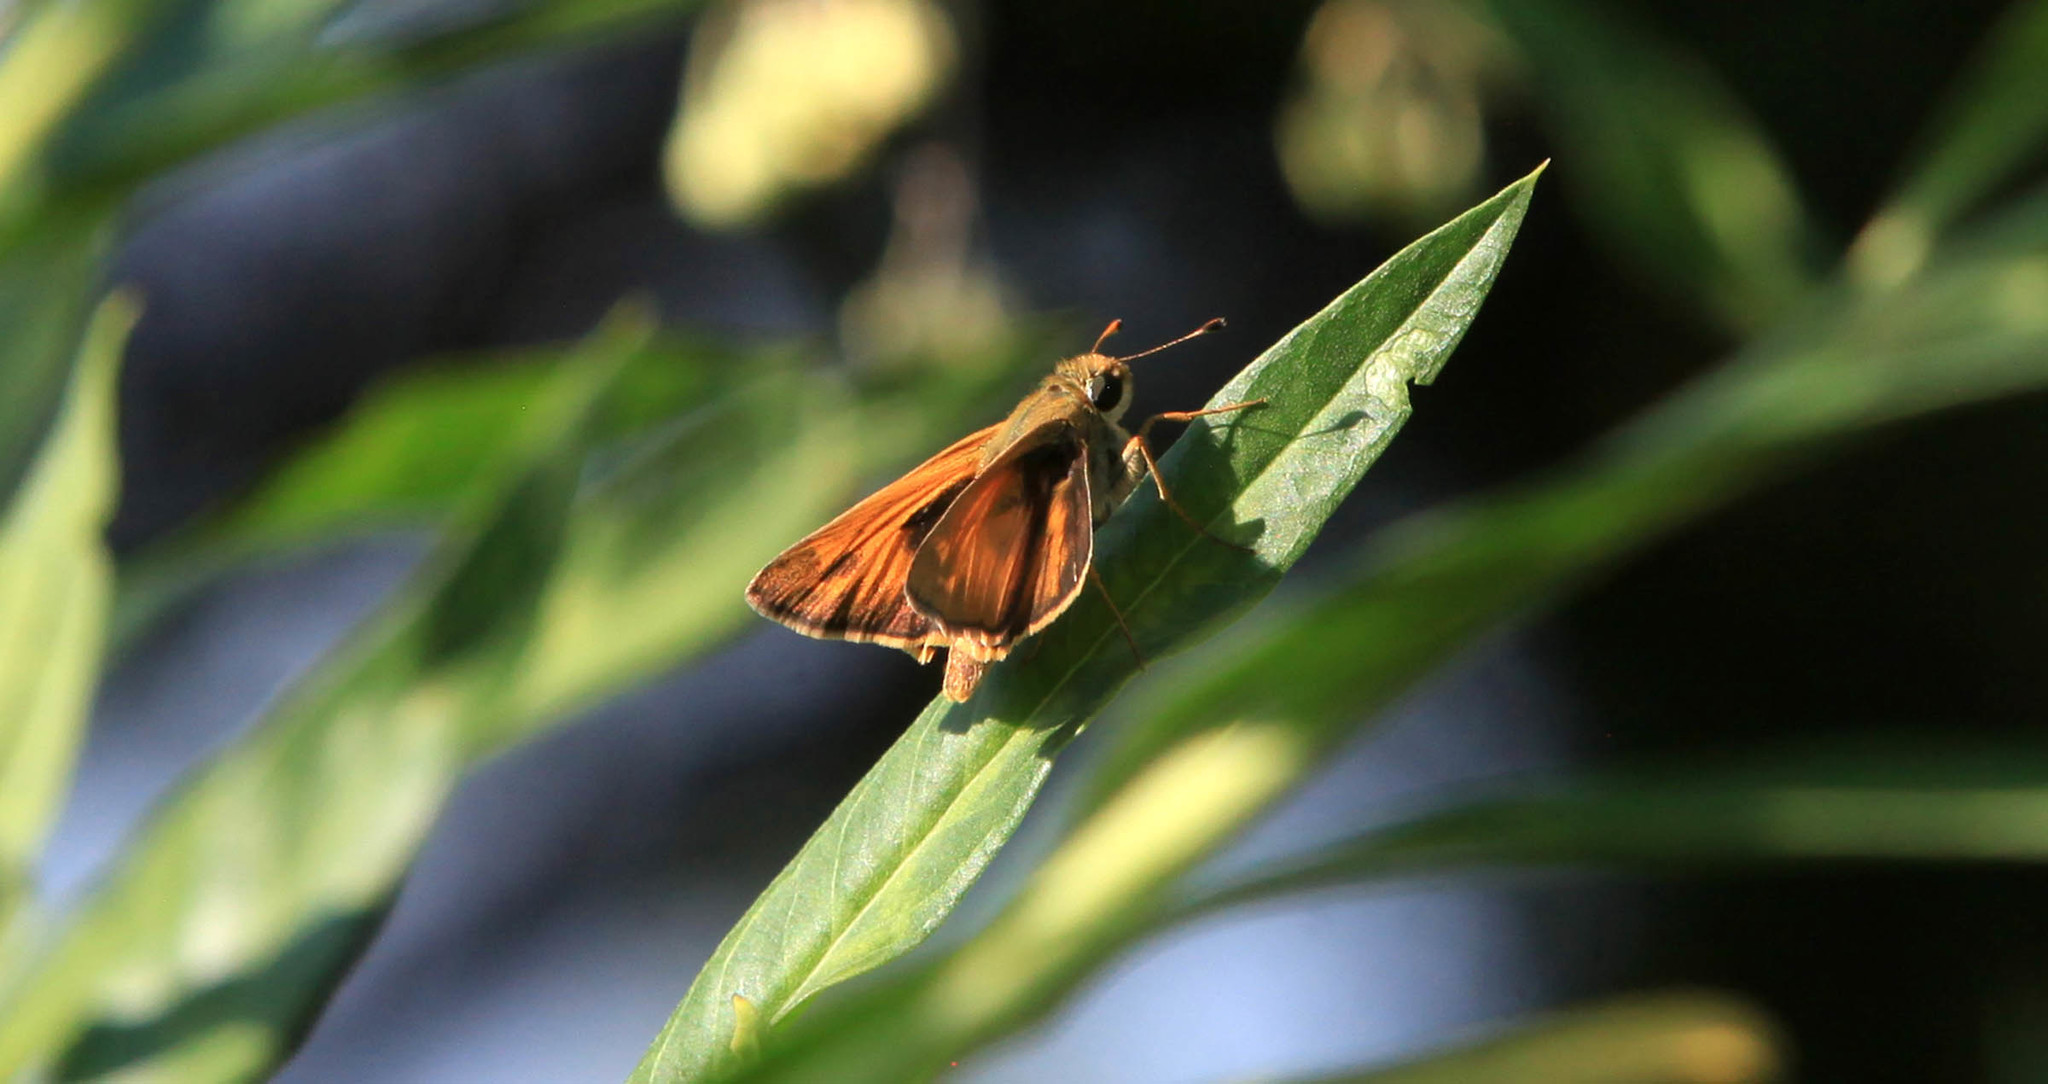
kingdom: Animalia
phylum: Arthropoda
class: Insecta
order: Lepidoptera
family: Hesperiidae
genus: Atalopedes
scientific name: Atalopedes
